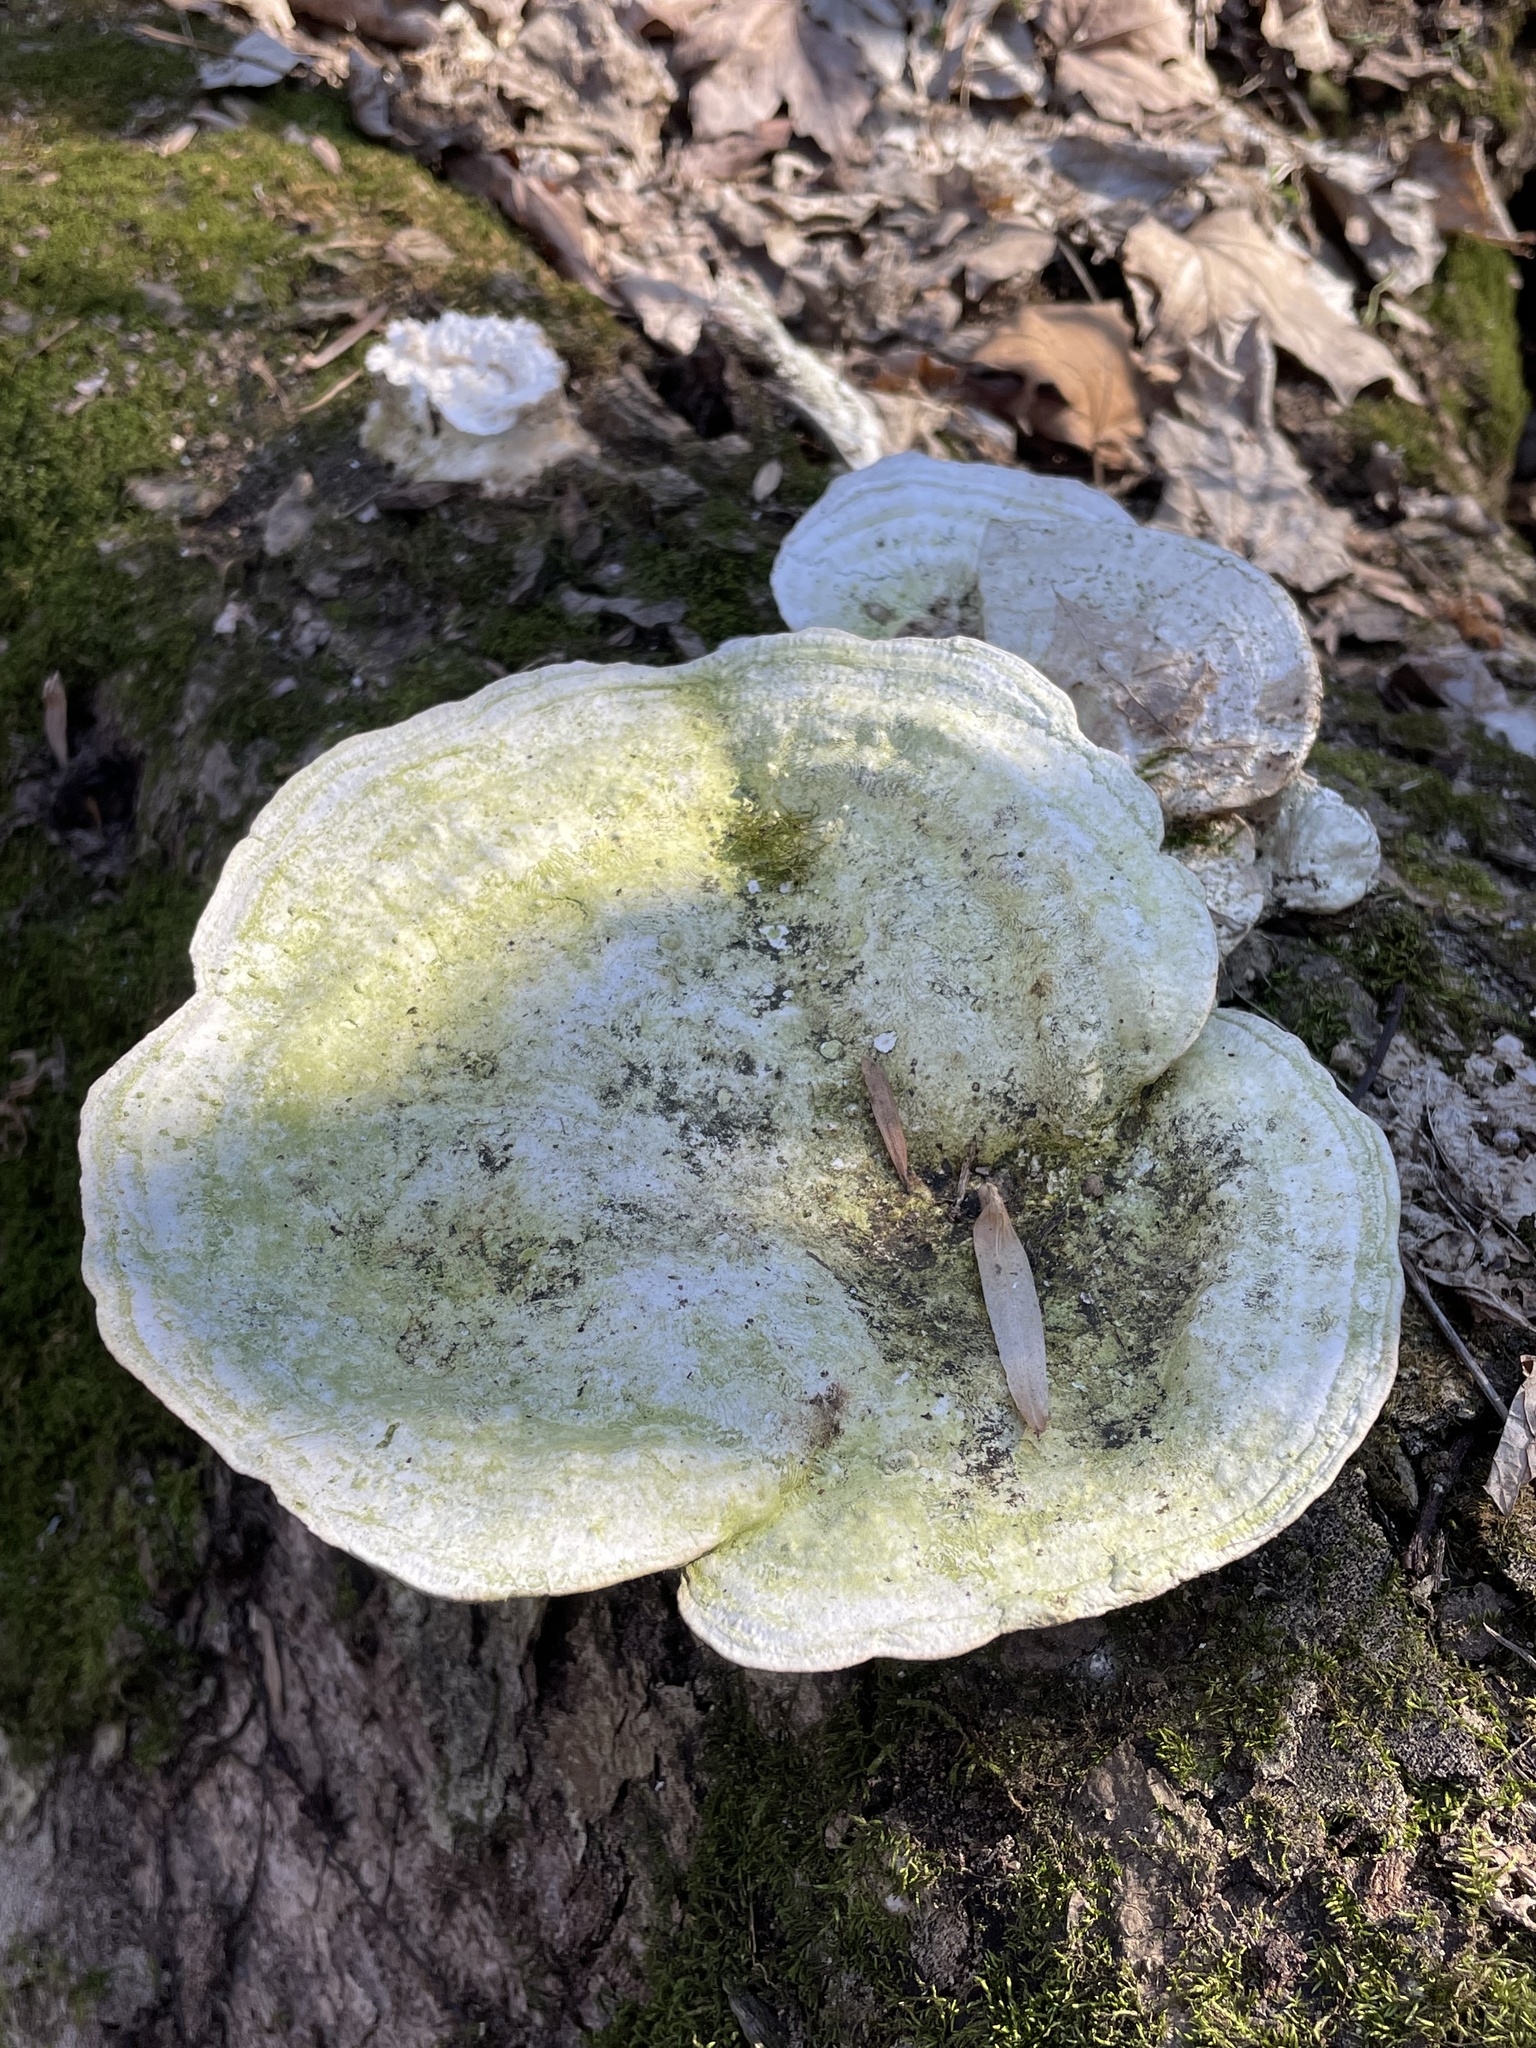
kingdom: Fungi
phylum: Basidiomycota
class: Agaricomycetes
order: Polyporales
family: Polyporaceae
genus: Trametes
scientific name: Trametes
